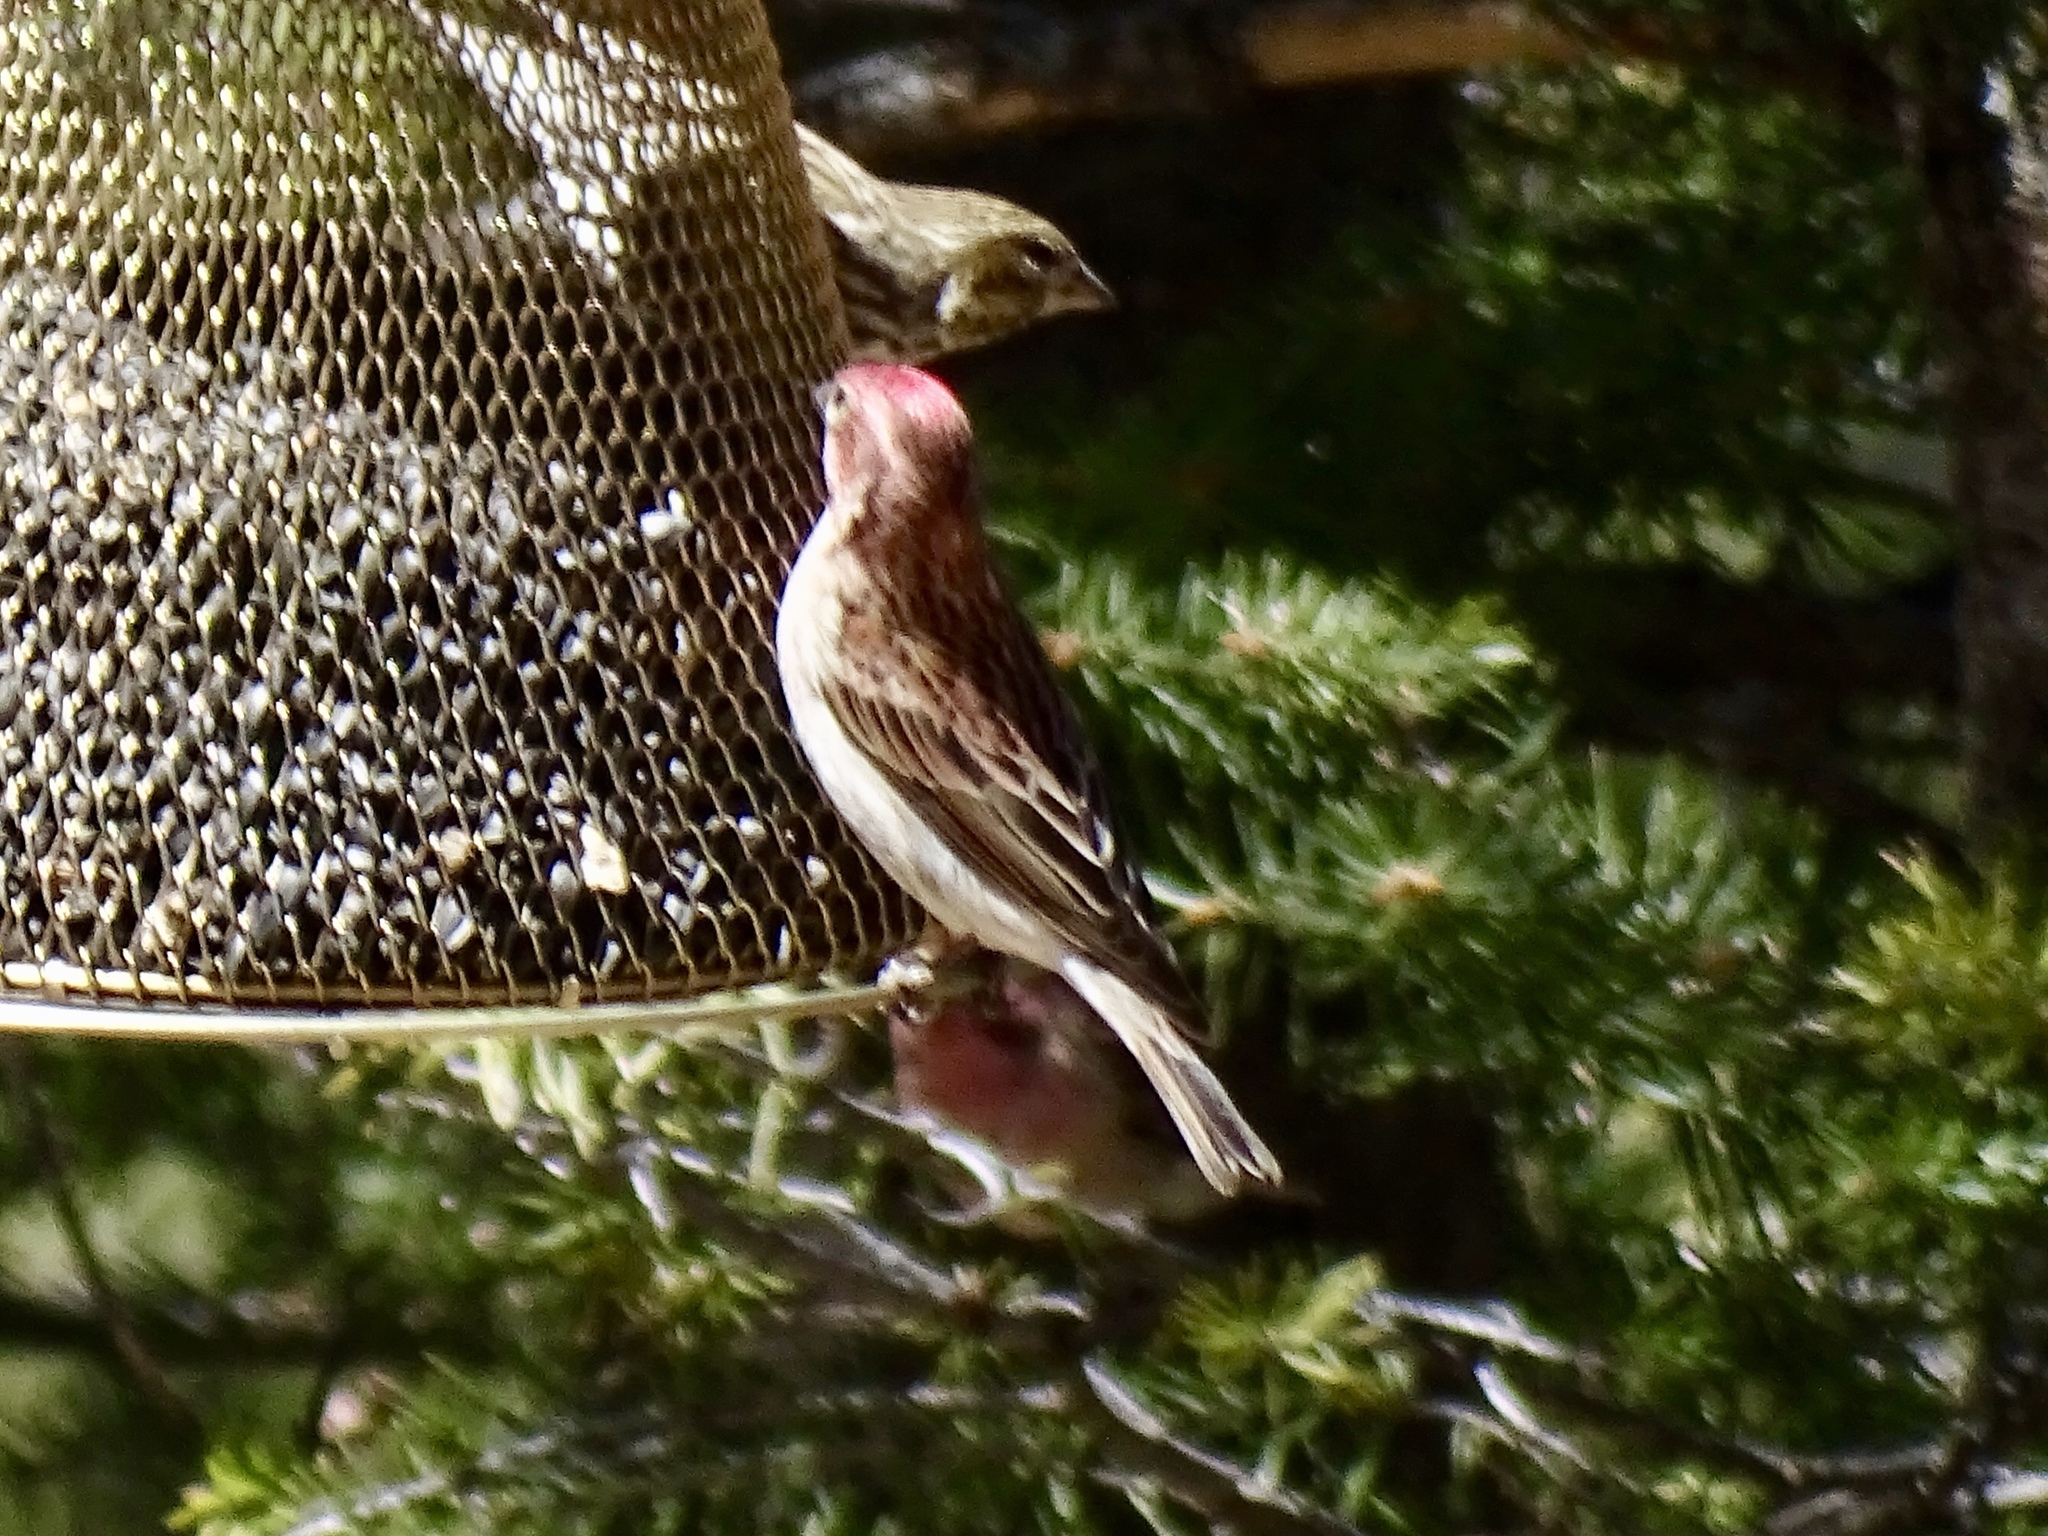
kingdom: Animalia
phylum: Chordata
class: Aves
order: Passeriformes
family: Fringillidae
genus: Haemorhous
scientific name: Haemorhous cassinii
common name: Cassin's finch
